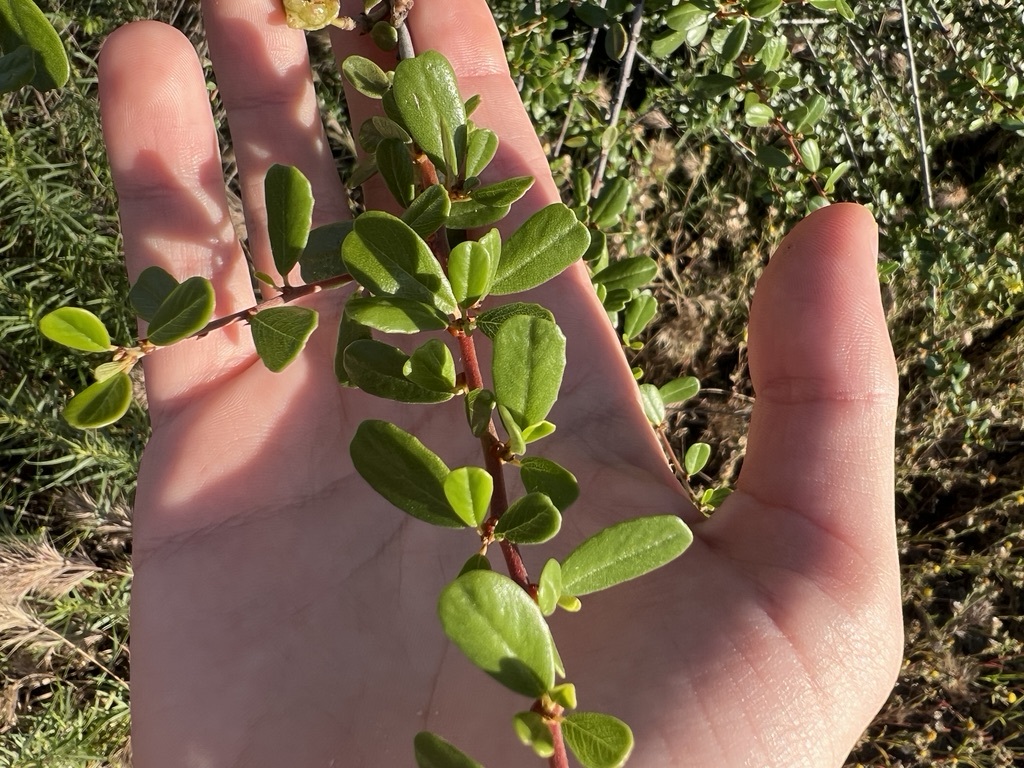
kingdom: Plantae
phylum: Tracheophyta
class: Magnoliopsida
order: Rosales
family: Rhamnaceae
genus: Ceanothus
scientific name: Ceanothus megacarpus
